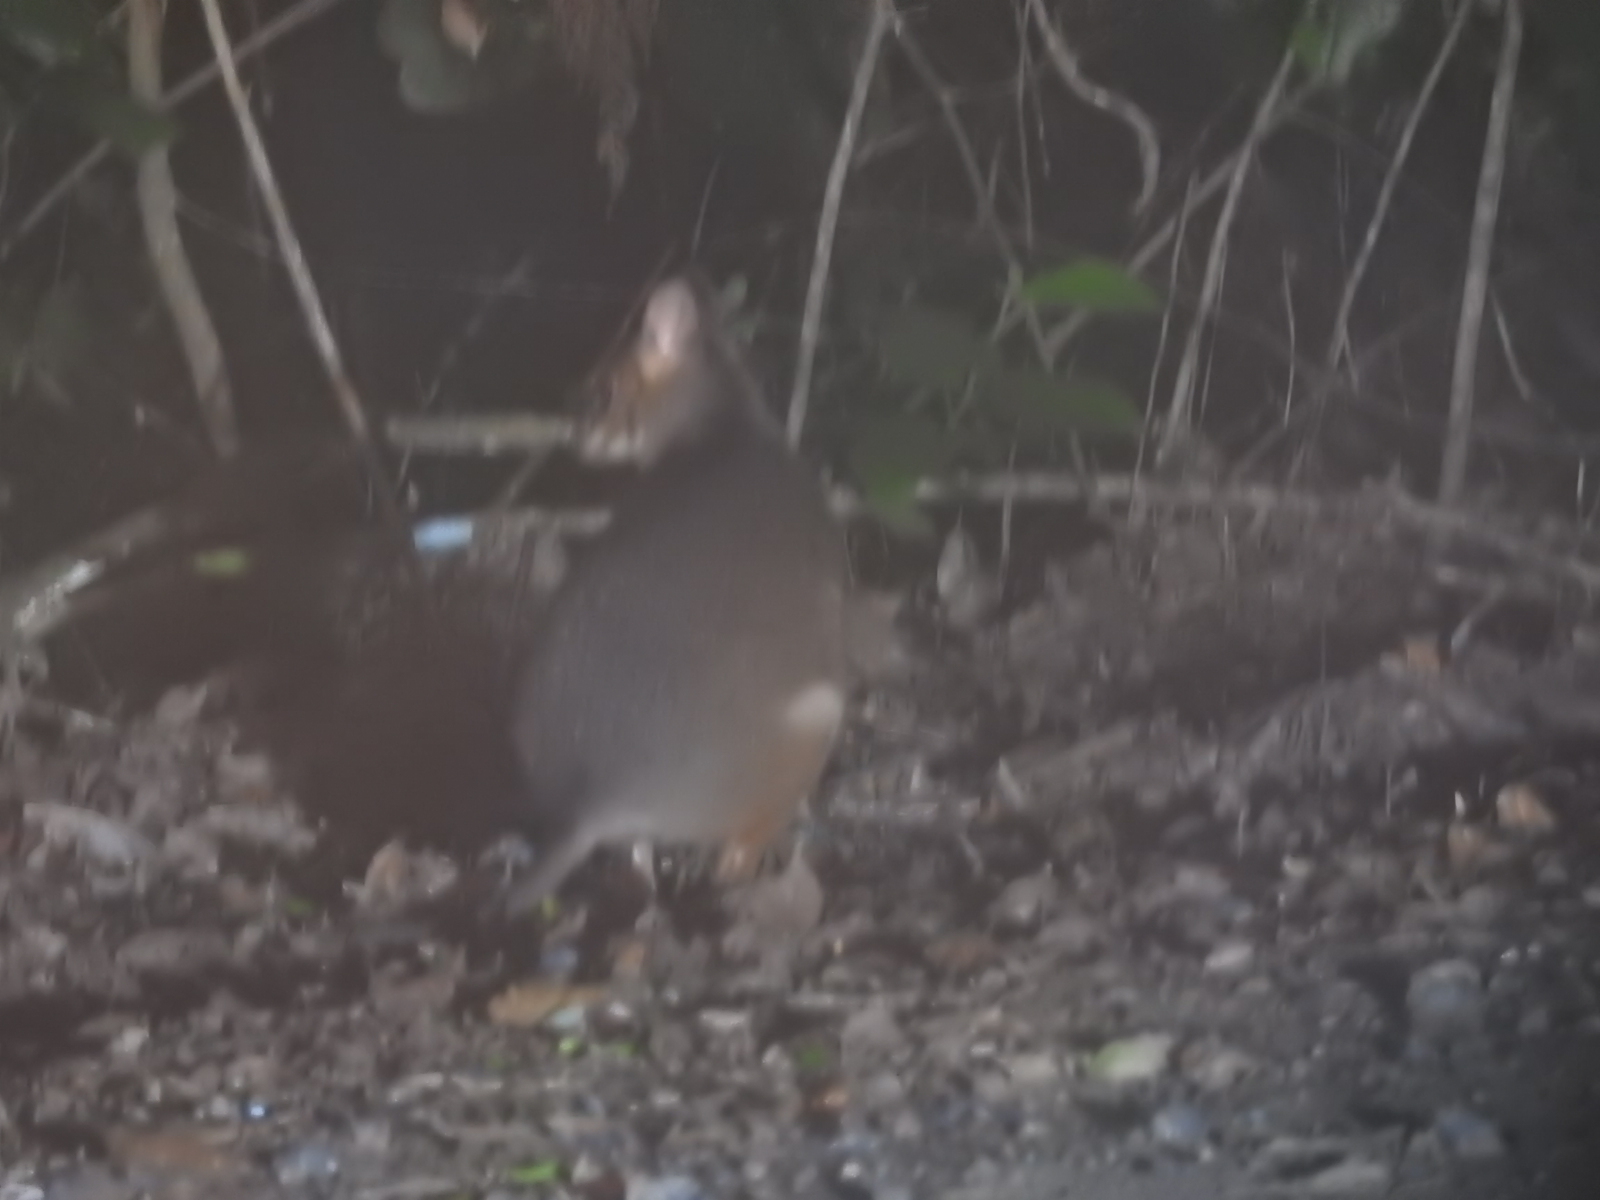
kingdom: Animalia
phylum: Chordata
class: Mammalia
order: Diprotodontia
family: Macropodidae
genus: Thylogale
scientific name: Thylogale stigmatica
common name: Red-legged pademelon
